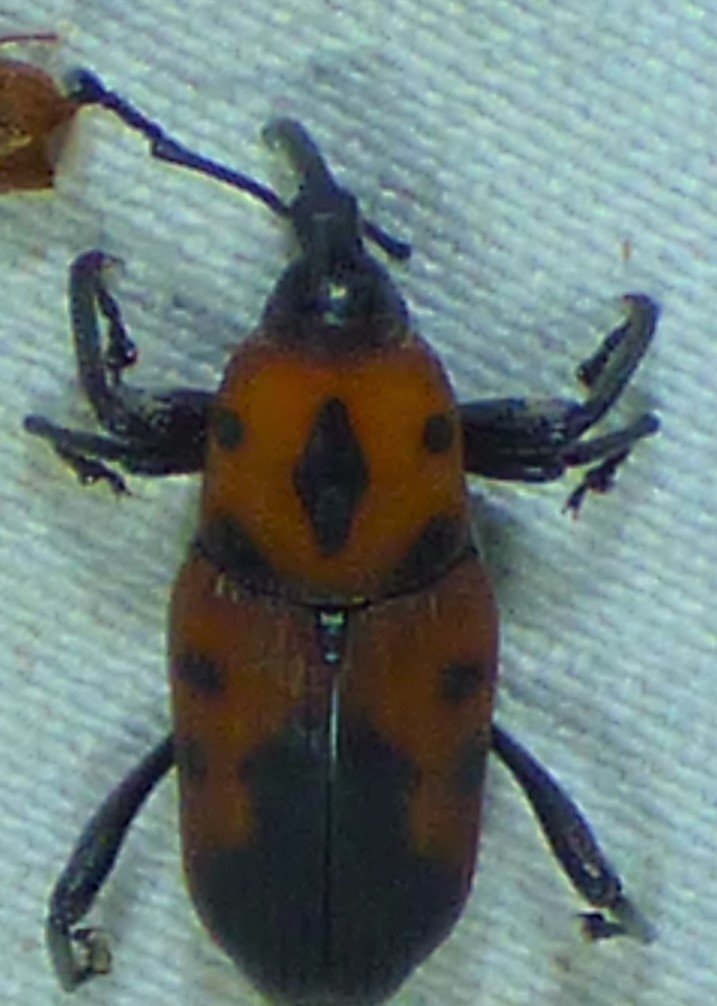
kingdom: Animalia
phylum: Arthropoda
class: Insecta
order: Coleoptera
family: Dryophthoridae
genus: Rhodobaenus
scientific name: Rhodobaenus quinquepunctatus
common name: Cocklebur weevil
